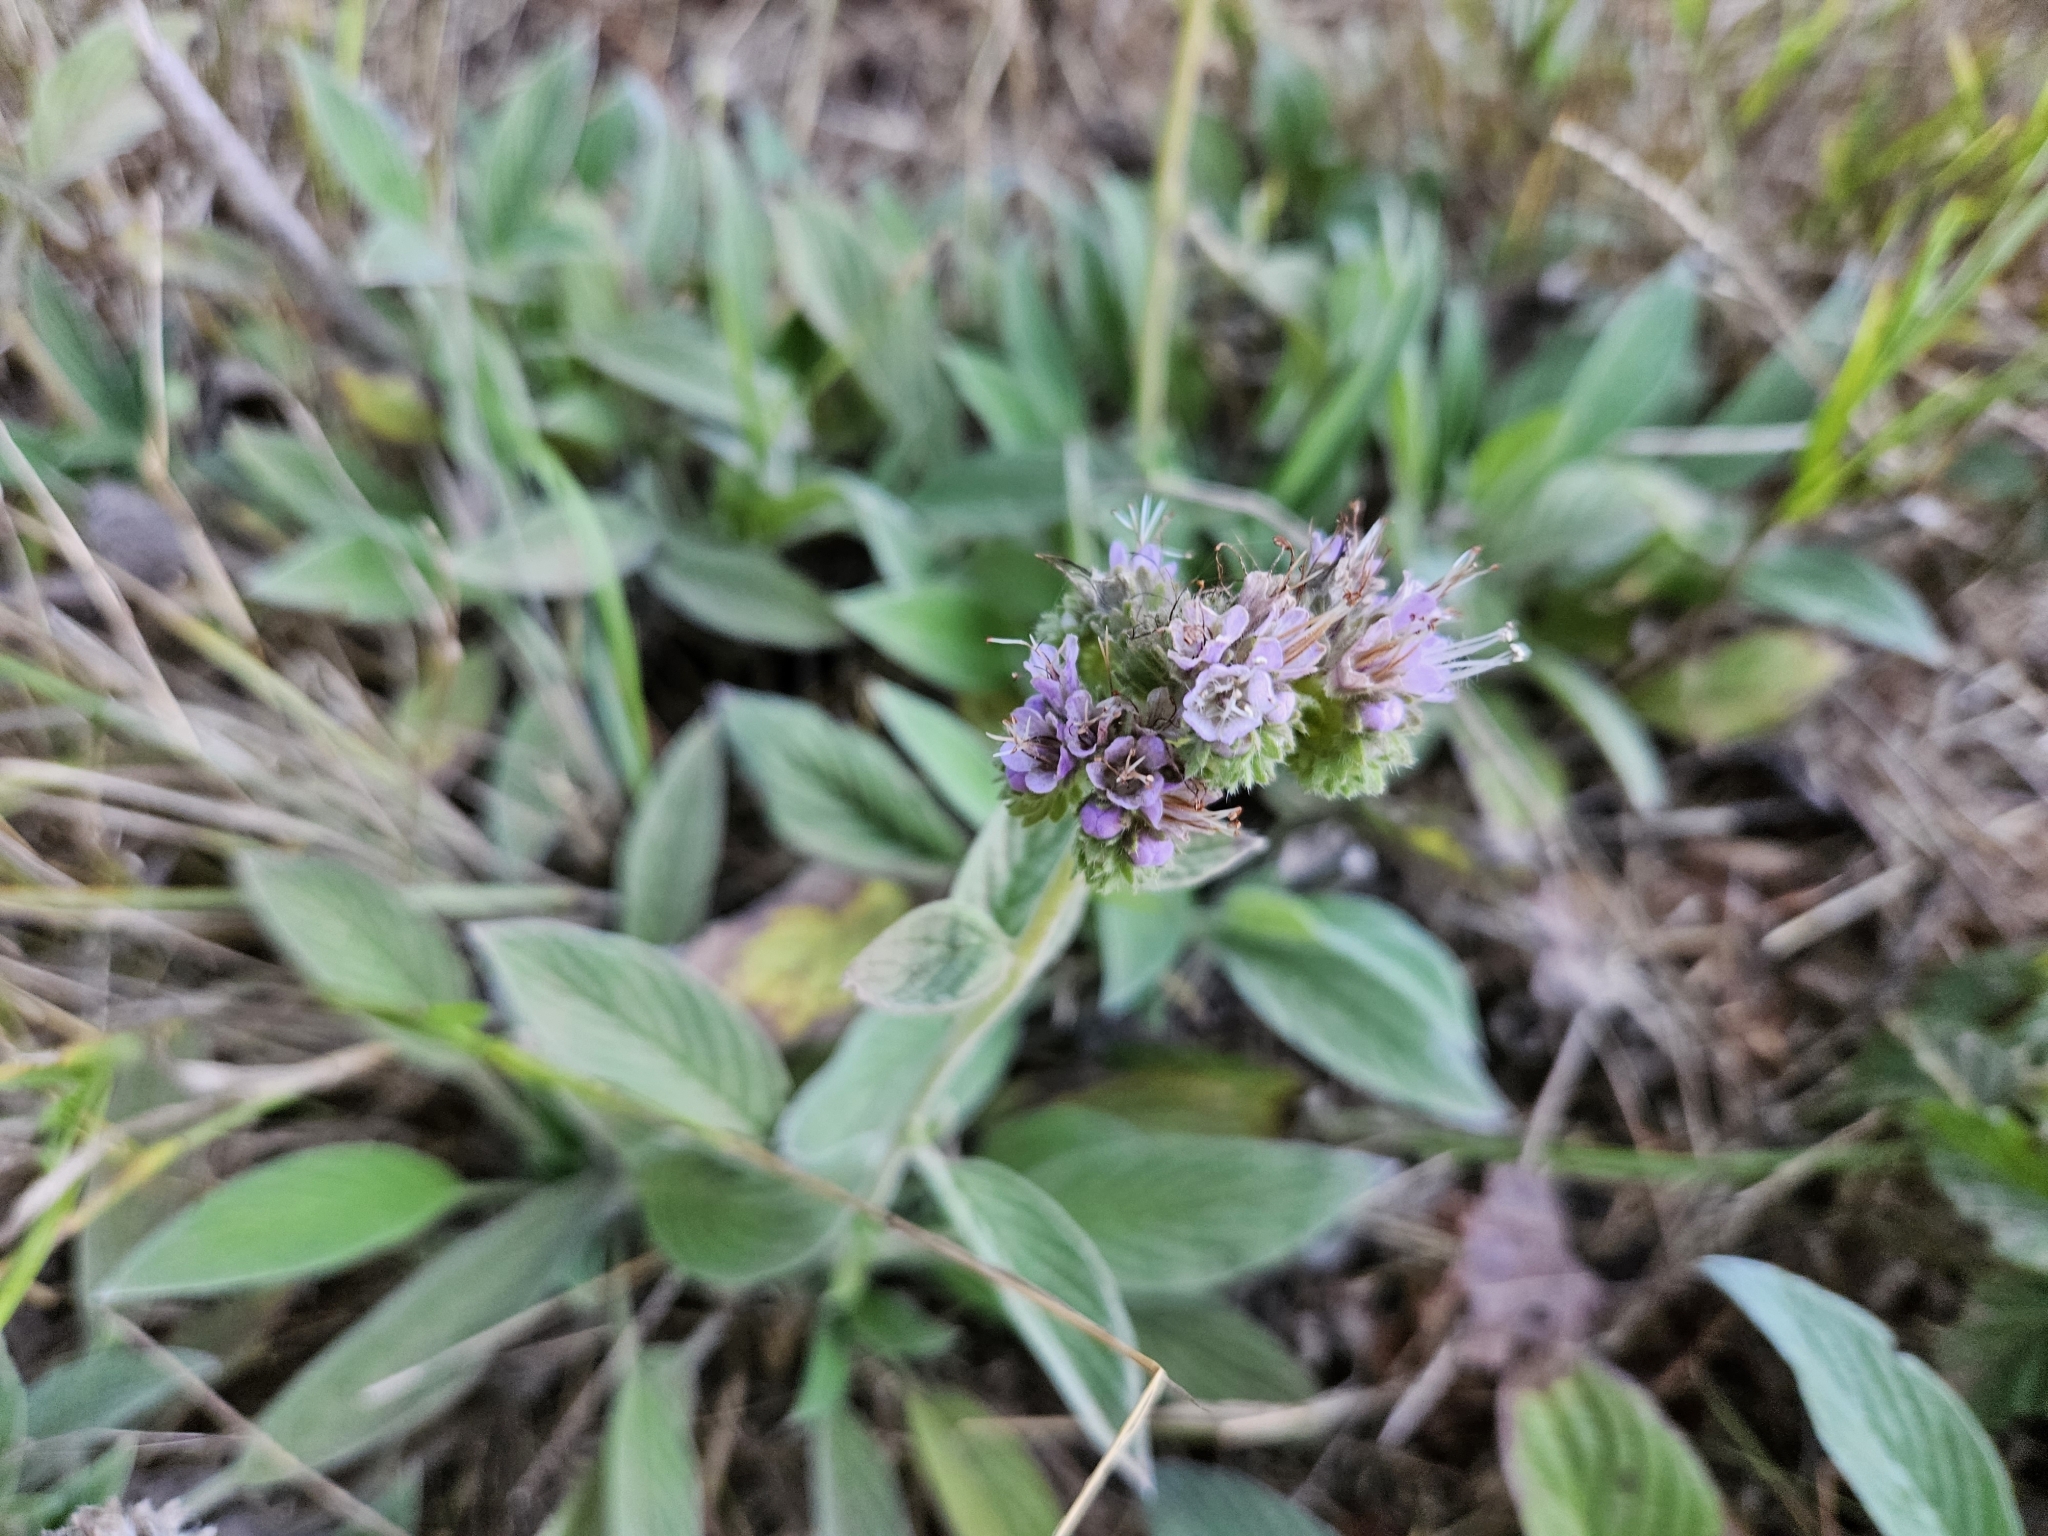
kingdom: Plantae
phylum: Tracheophyta
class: Magnoliopsida
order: Boraginales
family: Hydrophyllaceae
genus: Phacelia
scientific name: Phacelia californica
